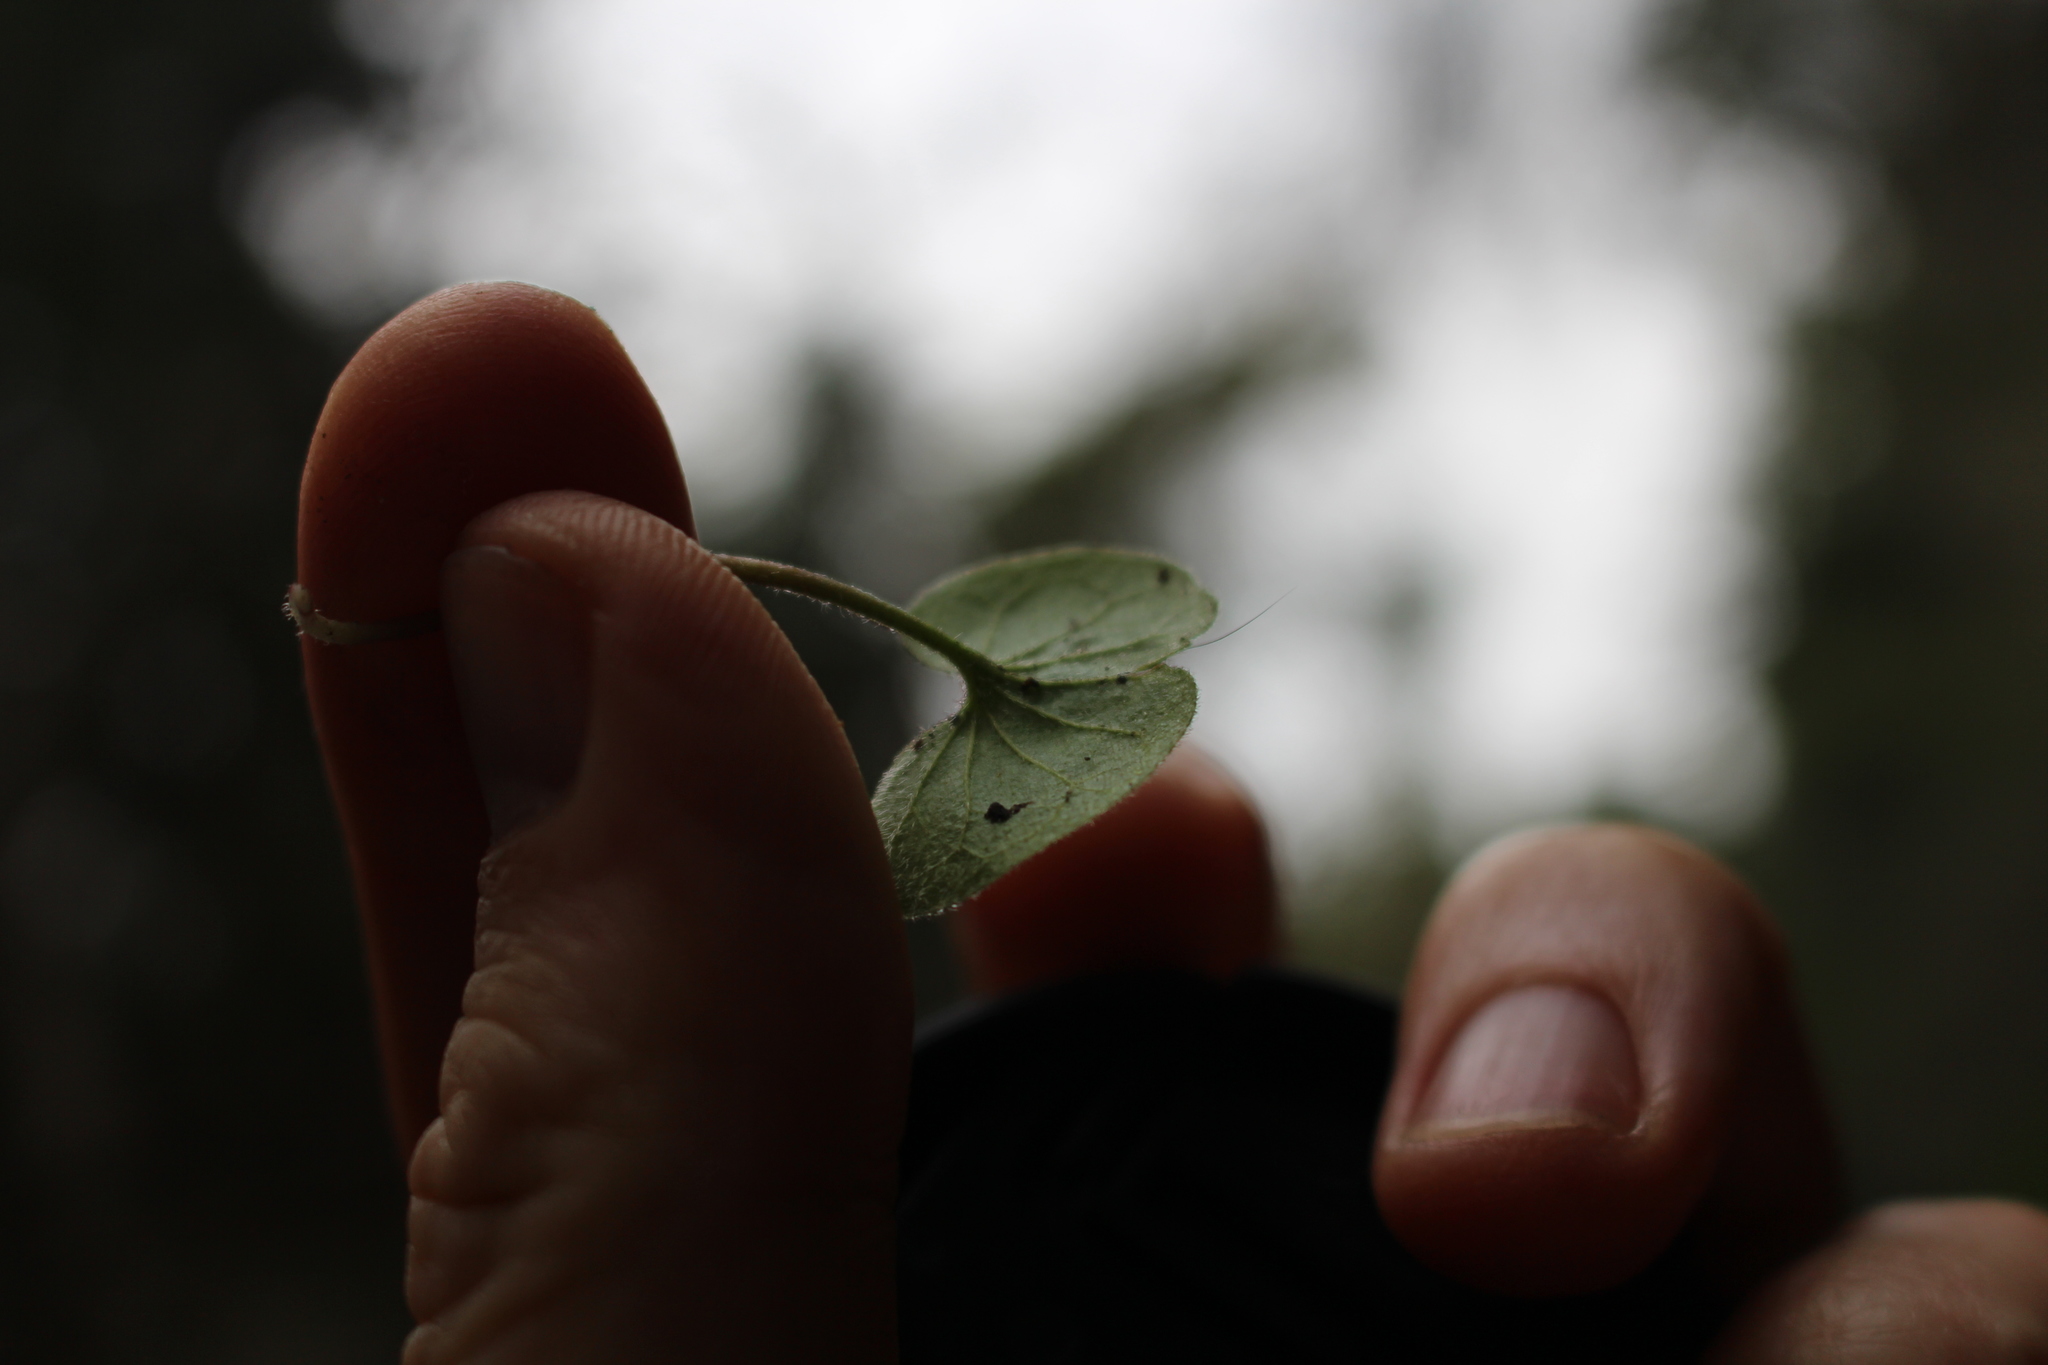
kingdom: Plantae
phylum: Tracheophyta
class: Magnoliopsida
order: Solanales
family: Convolvulaceae
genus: Dichondra
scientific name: Dichondra repens
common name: Kidneyweed
